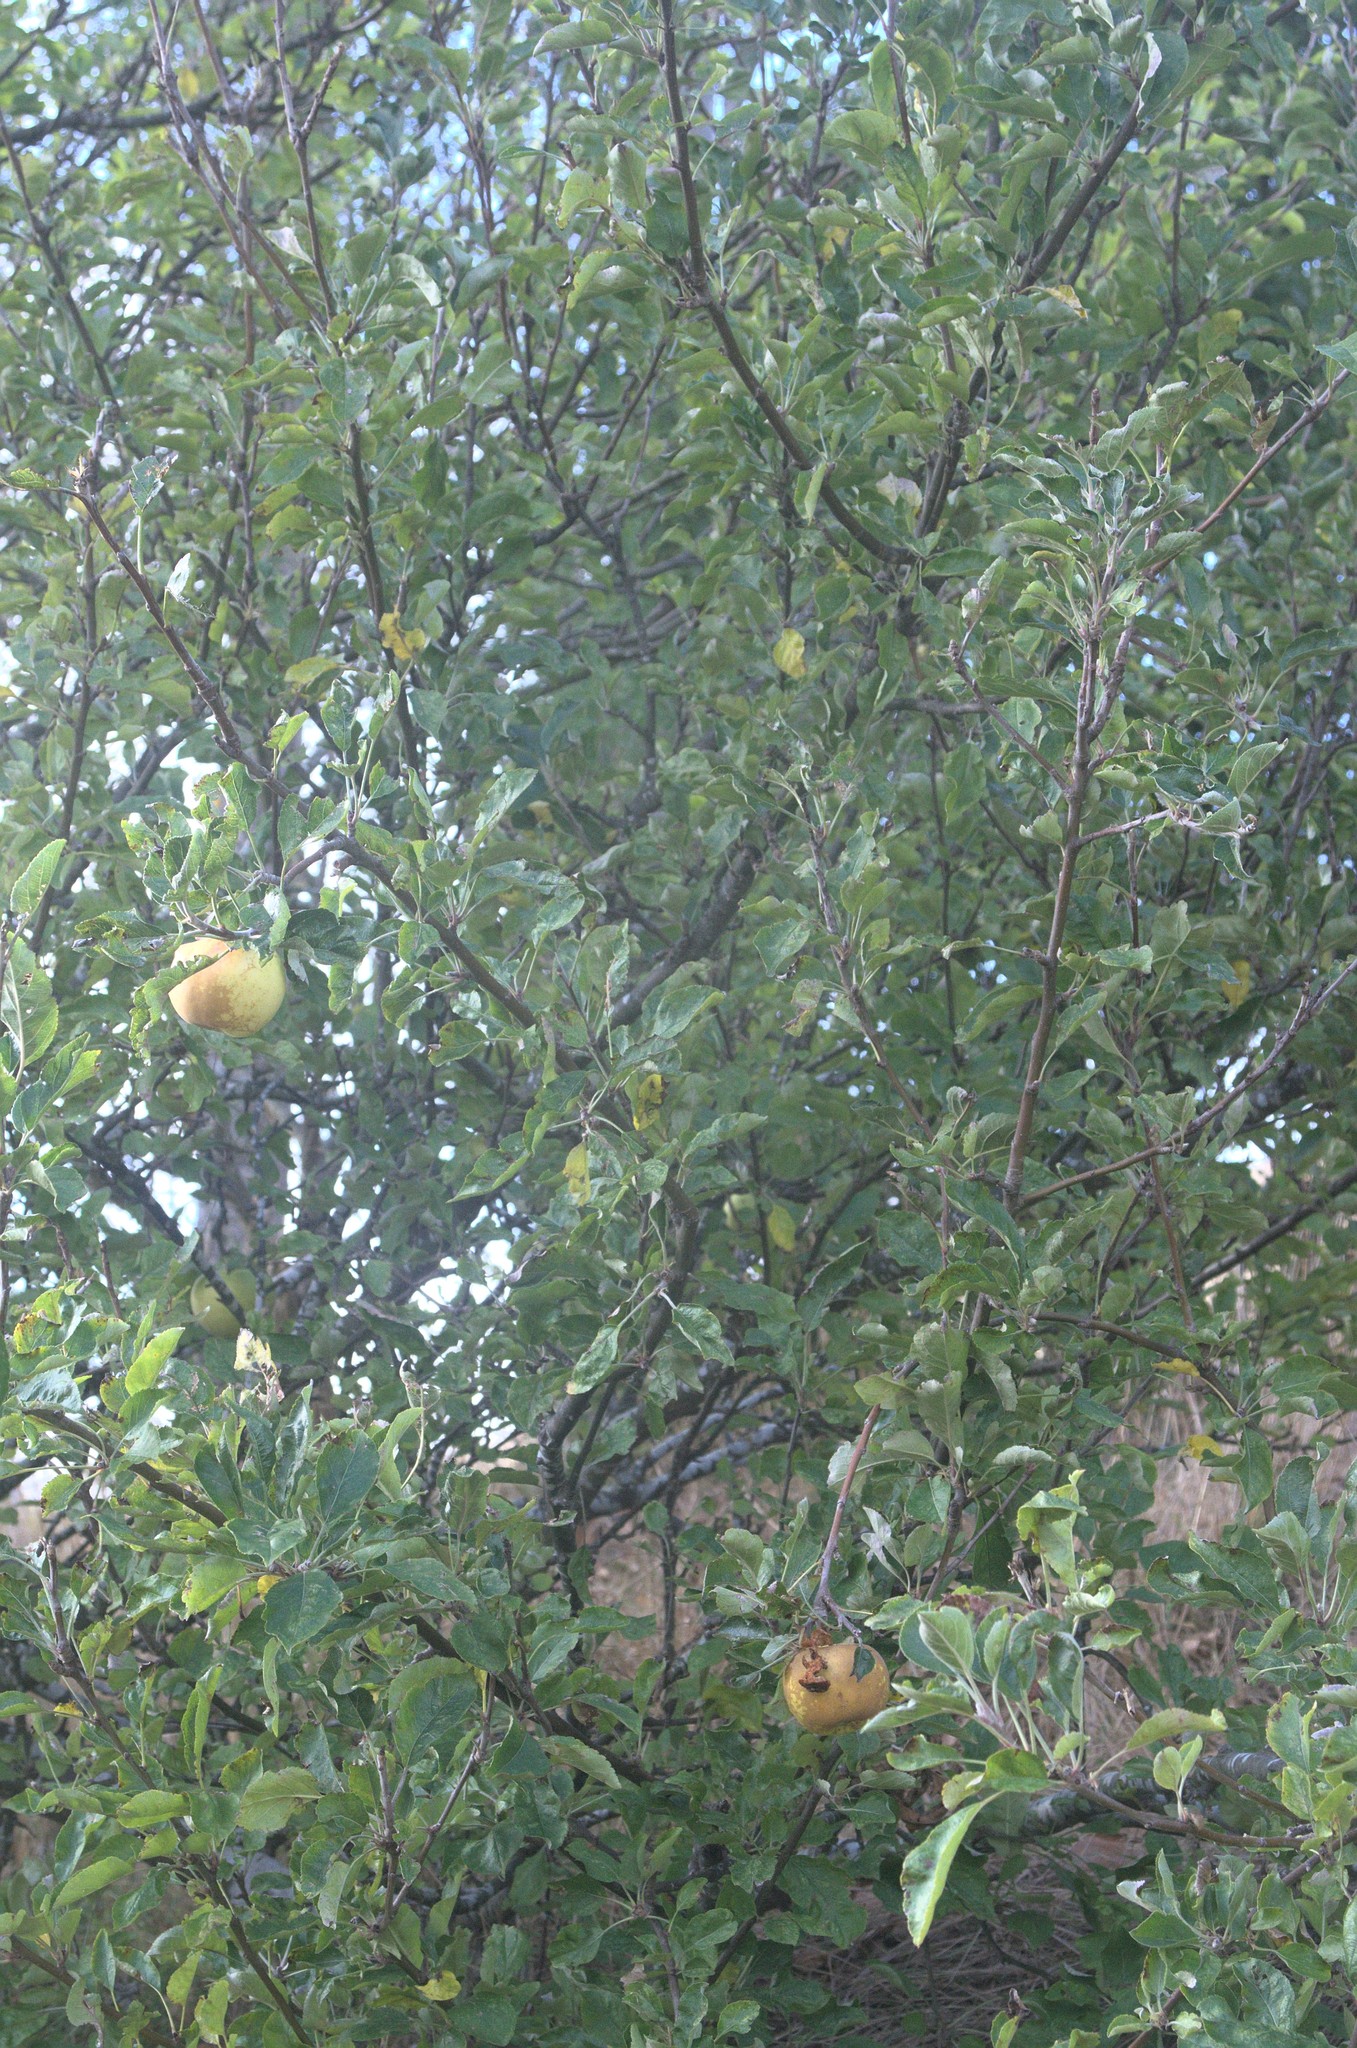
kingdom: Plantae
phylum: Tracheophyta
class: Magnoliopsida
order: Rosales
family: Rosaceae
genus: Malus
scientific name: Malus domestica
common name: Apple
